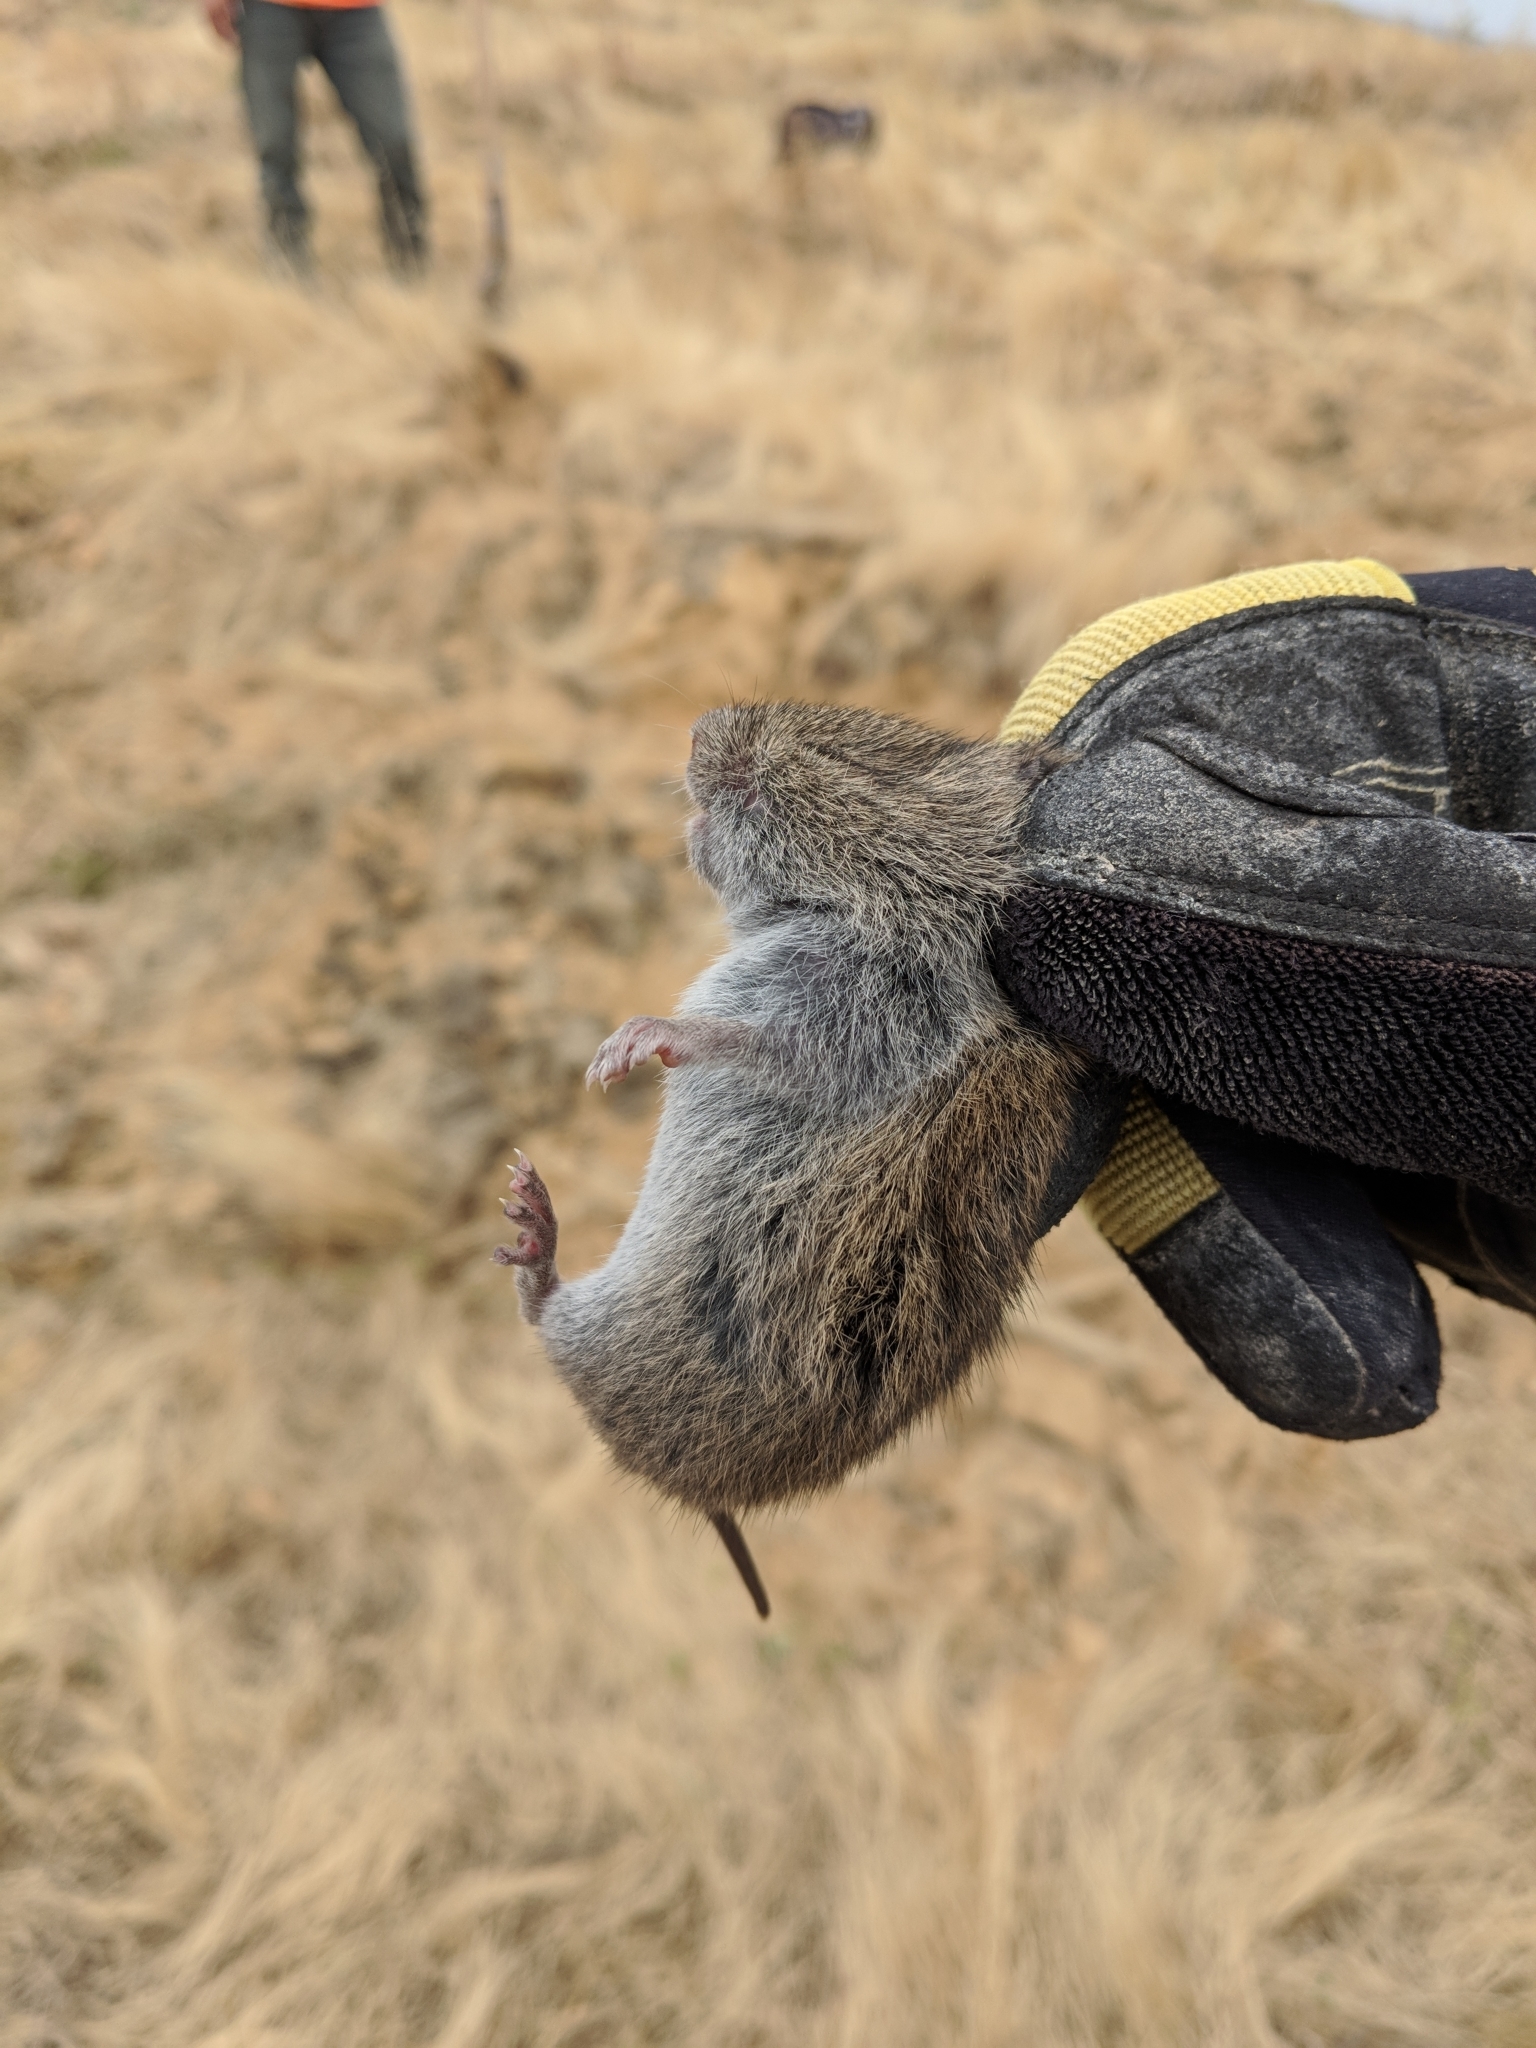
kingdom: Animalia
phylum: Chordata
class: Mammalia
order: Rodentia
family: Cricetidae
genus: Microtus
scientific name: Microtus californicus
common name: California vole
